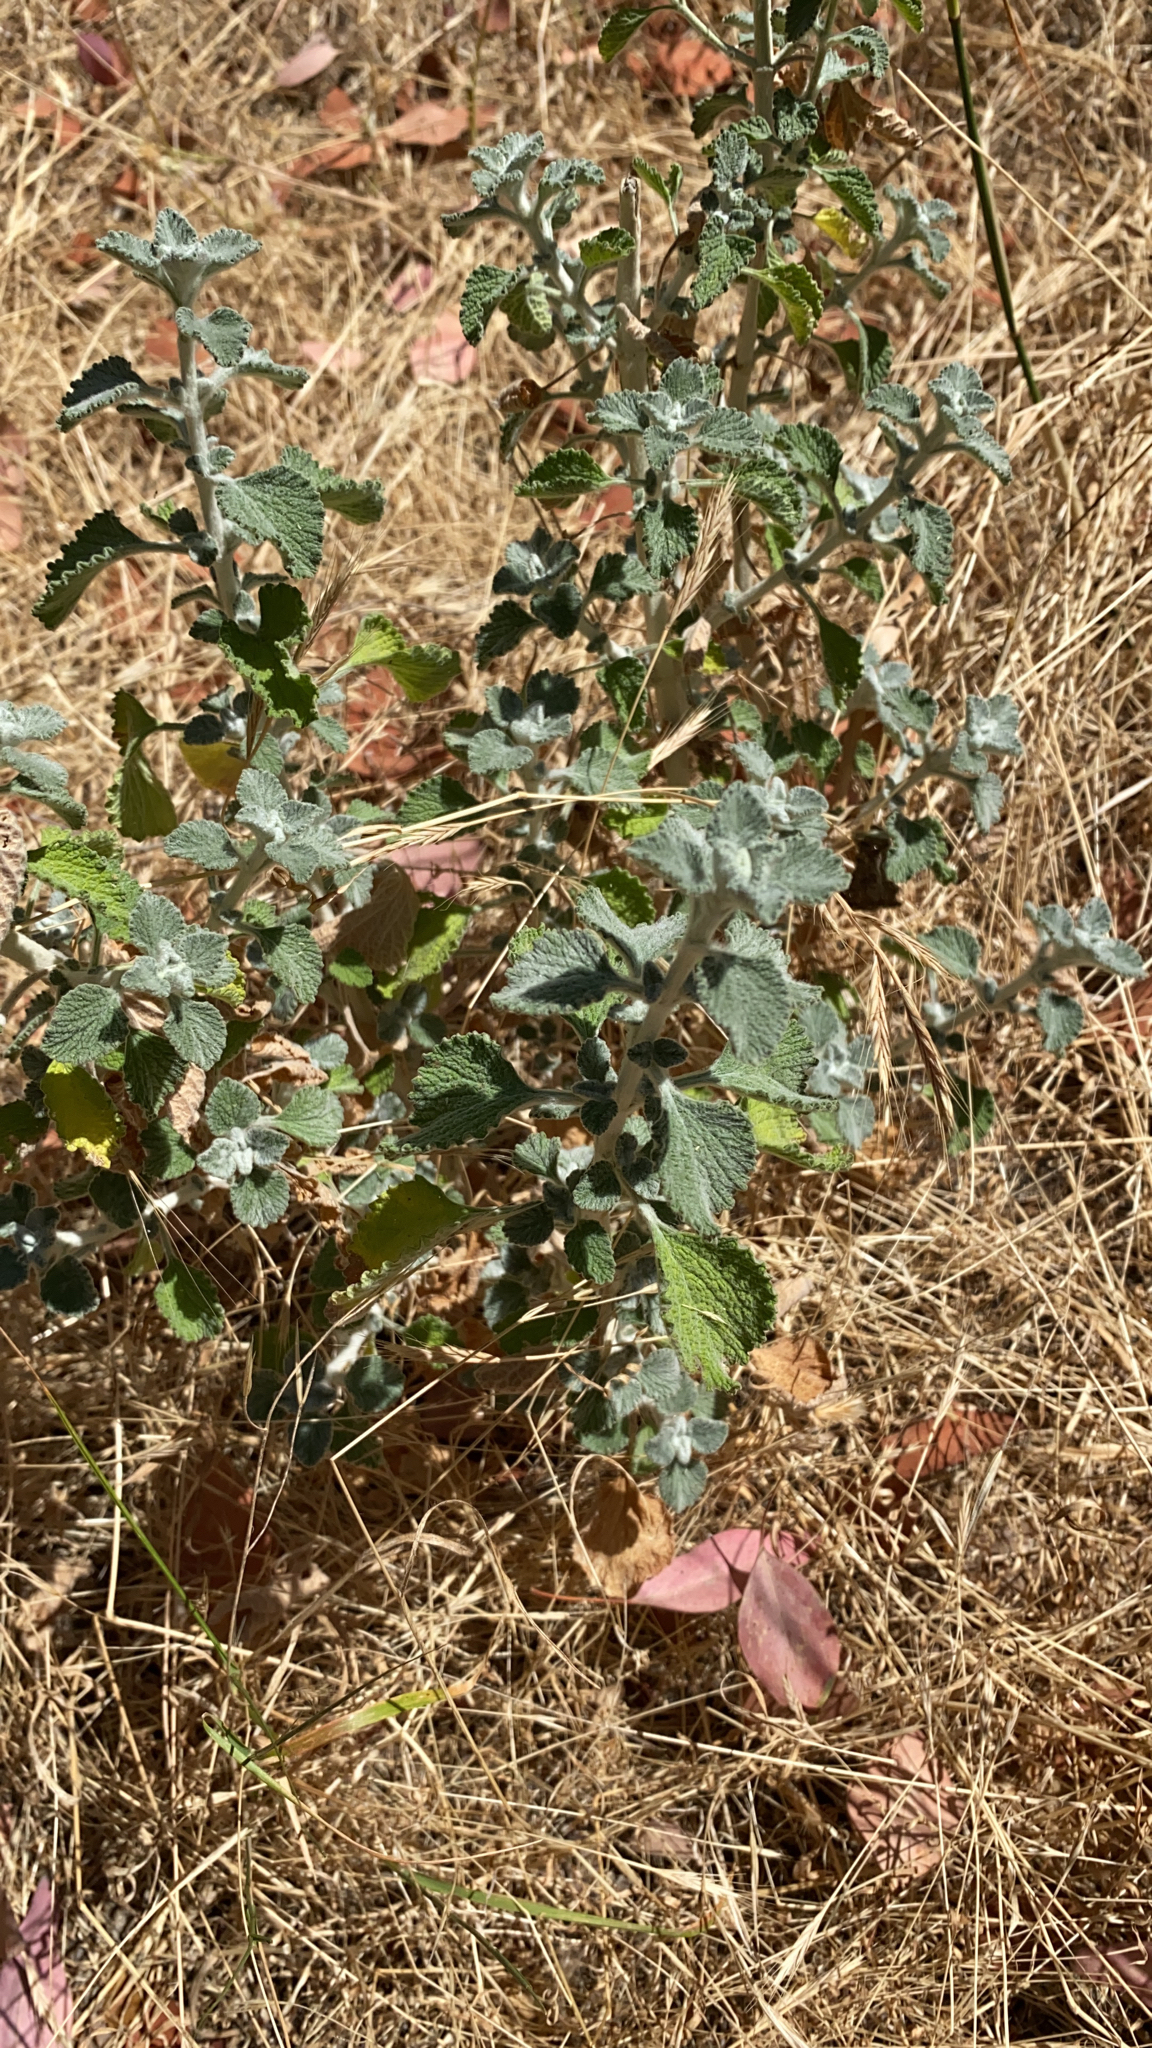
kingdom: Plantae
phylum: Tracheophyta
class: Magnoliopsida
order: Lamiales
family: Lamiaceae
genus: Marrubium
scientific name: Marrubium vulgare
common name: Horehound
